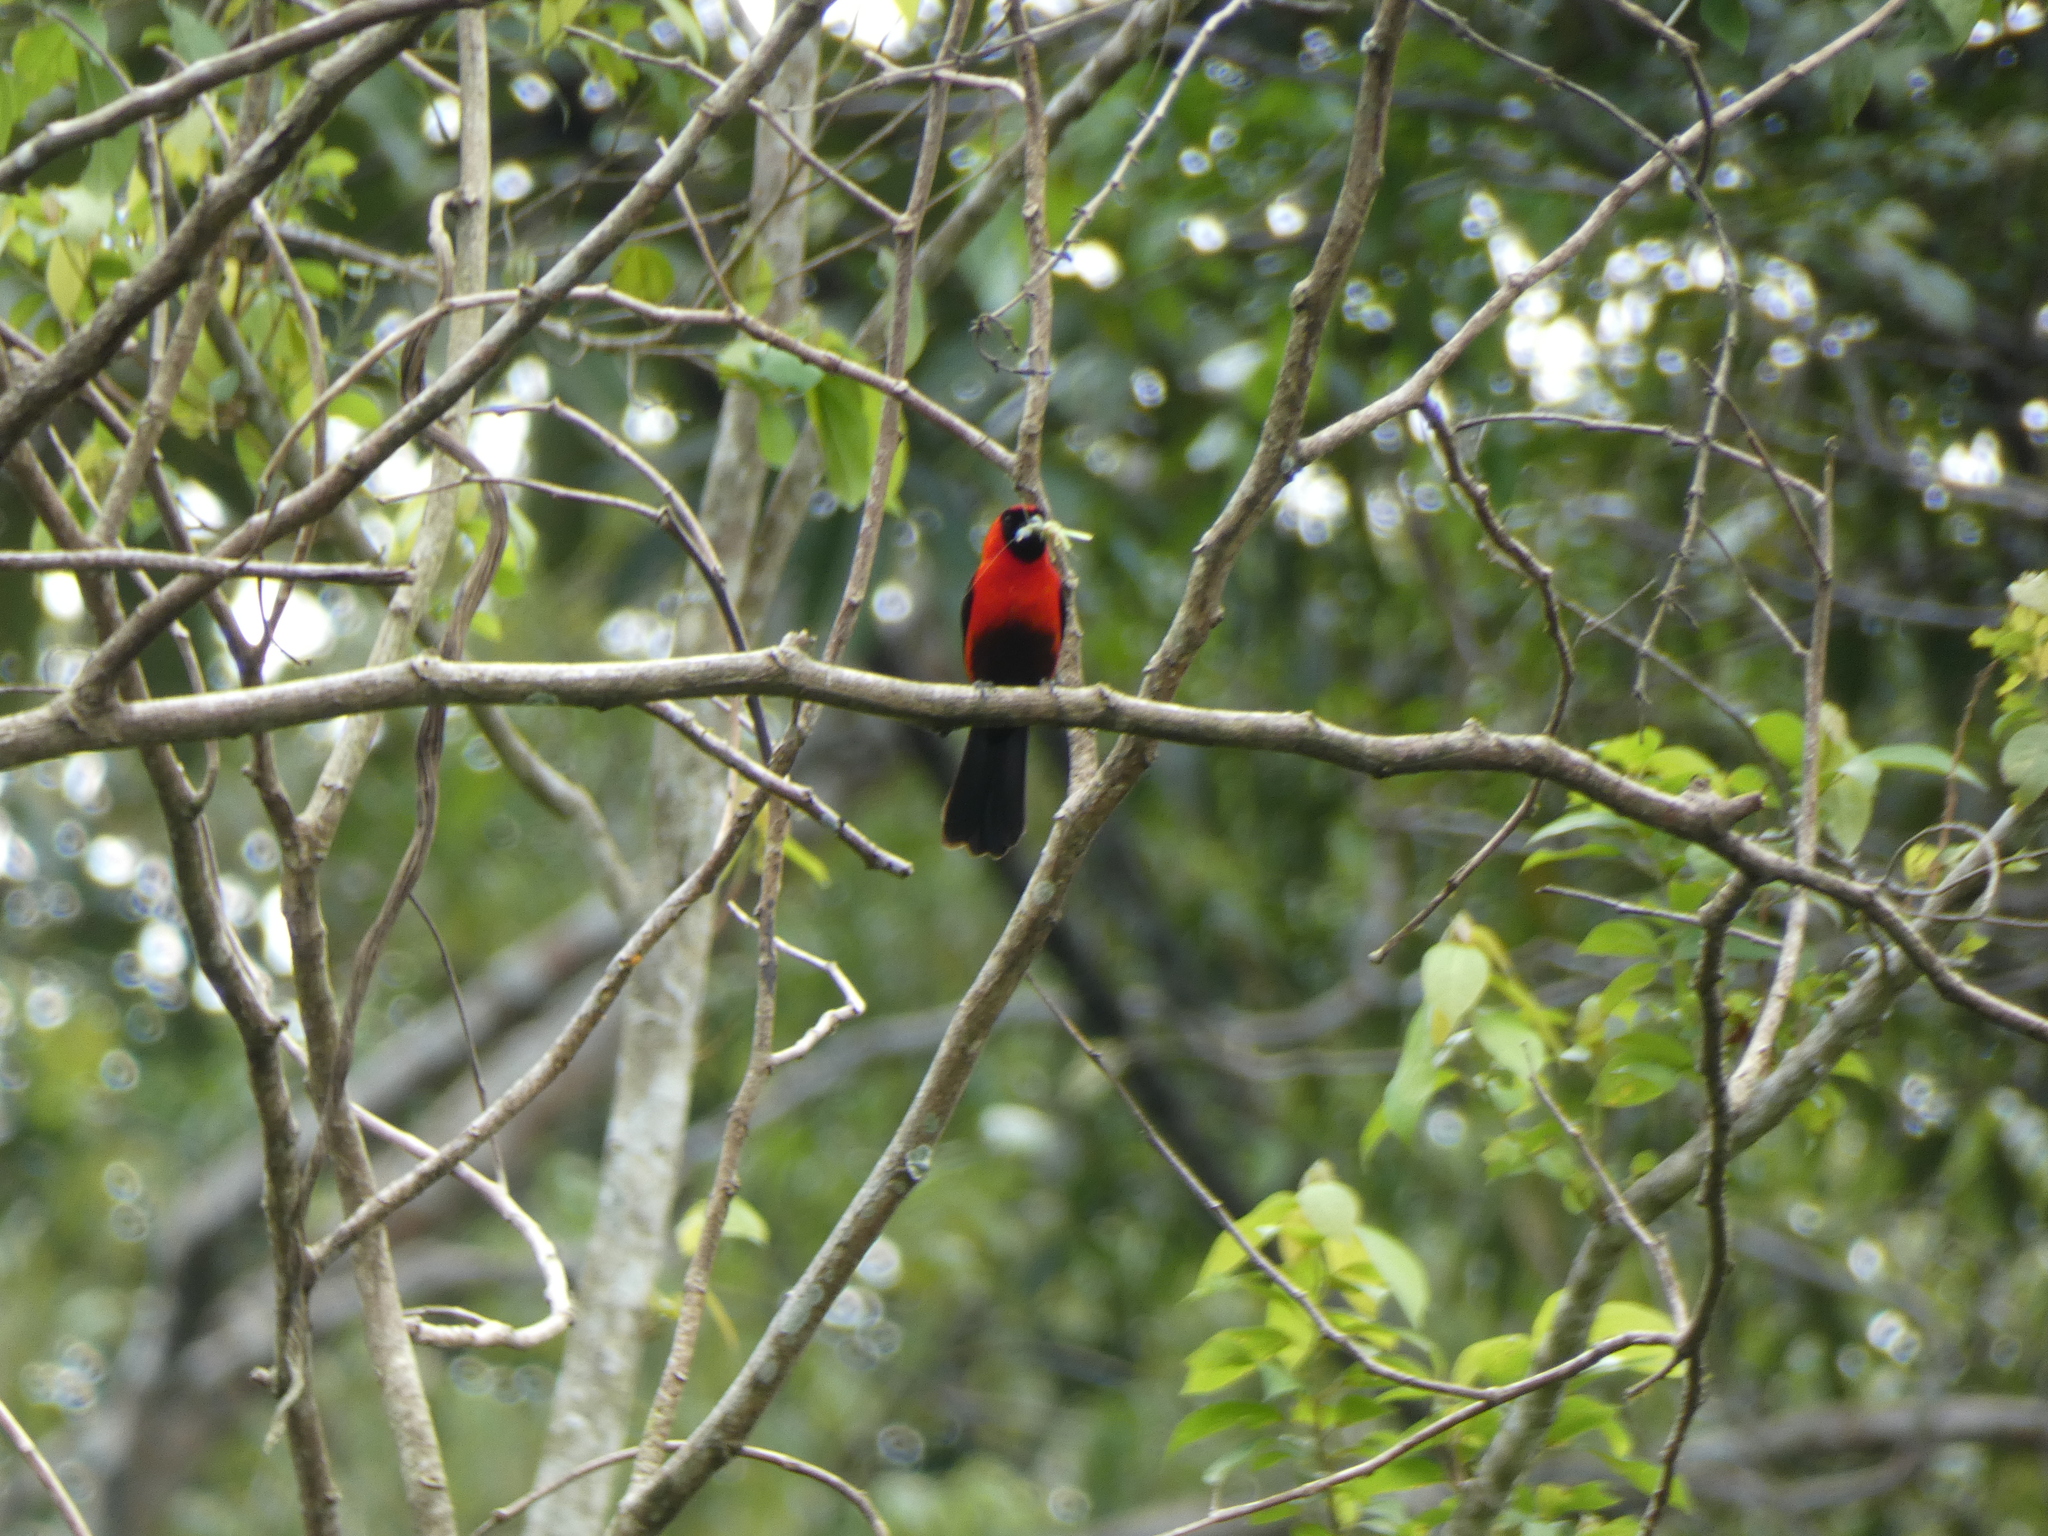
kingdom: Animalia
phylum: Chordata
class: Aves
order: Passeriformes
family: Thraupidae
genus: Ramphocelus
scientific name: Ramphocelus nigrogularis
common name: Masked crimson tanager
